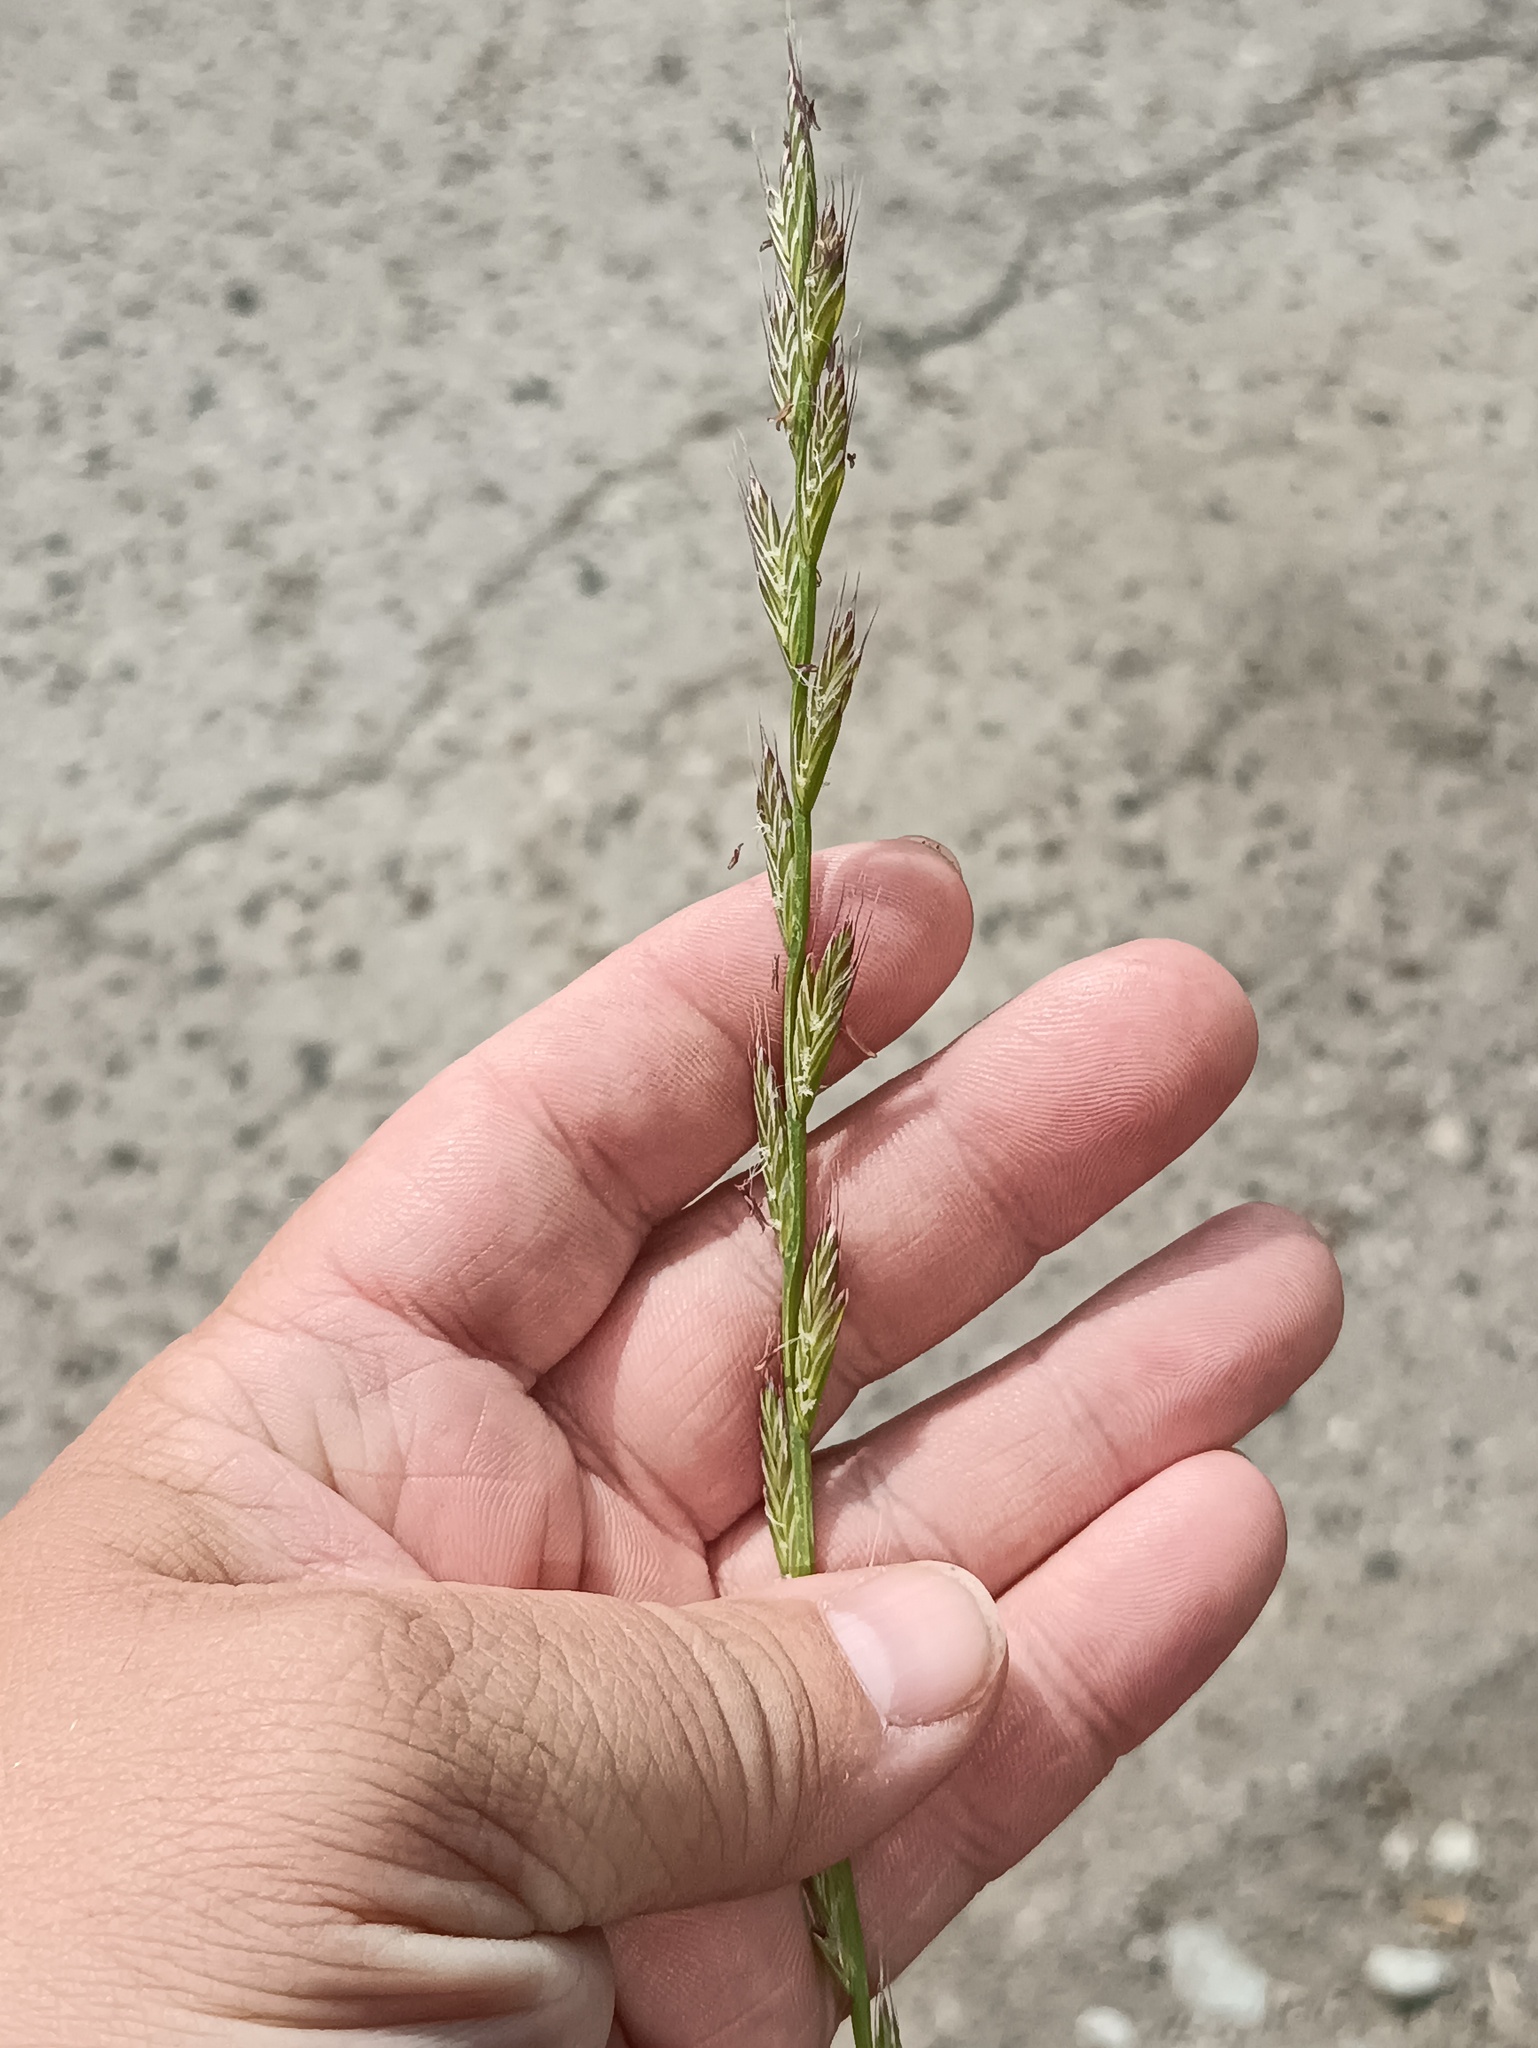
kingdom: Plantae
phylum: Tracheophyta
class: Liliopsida
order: Poales
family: Poaceae
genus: Lolium
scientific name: Lolium multiflorum
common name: Annual ryegrass
